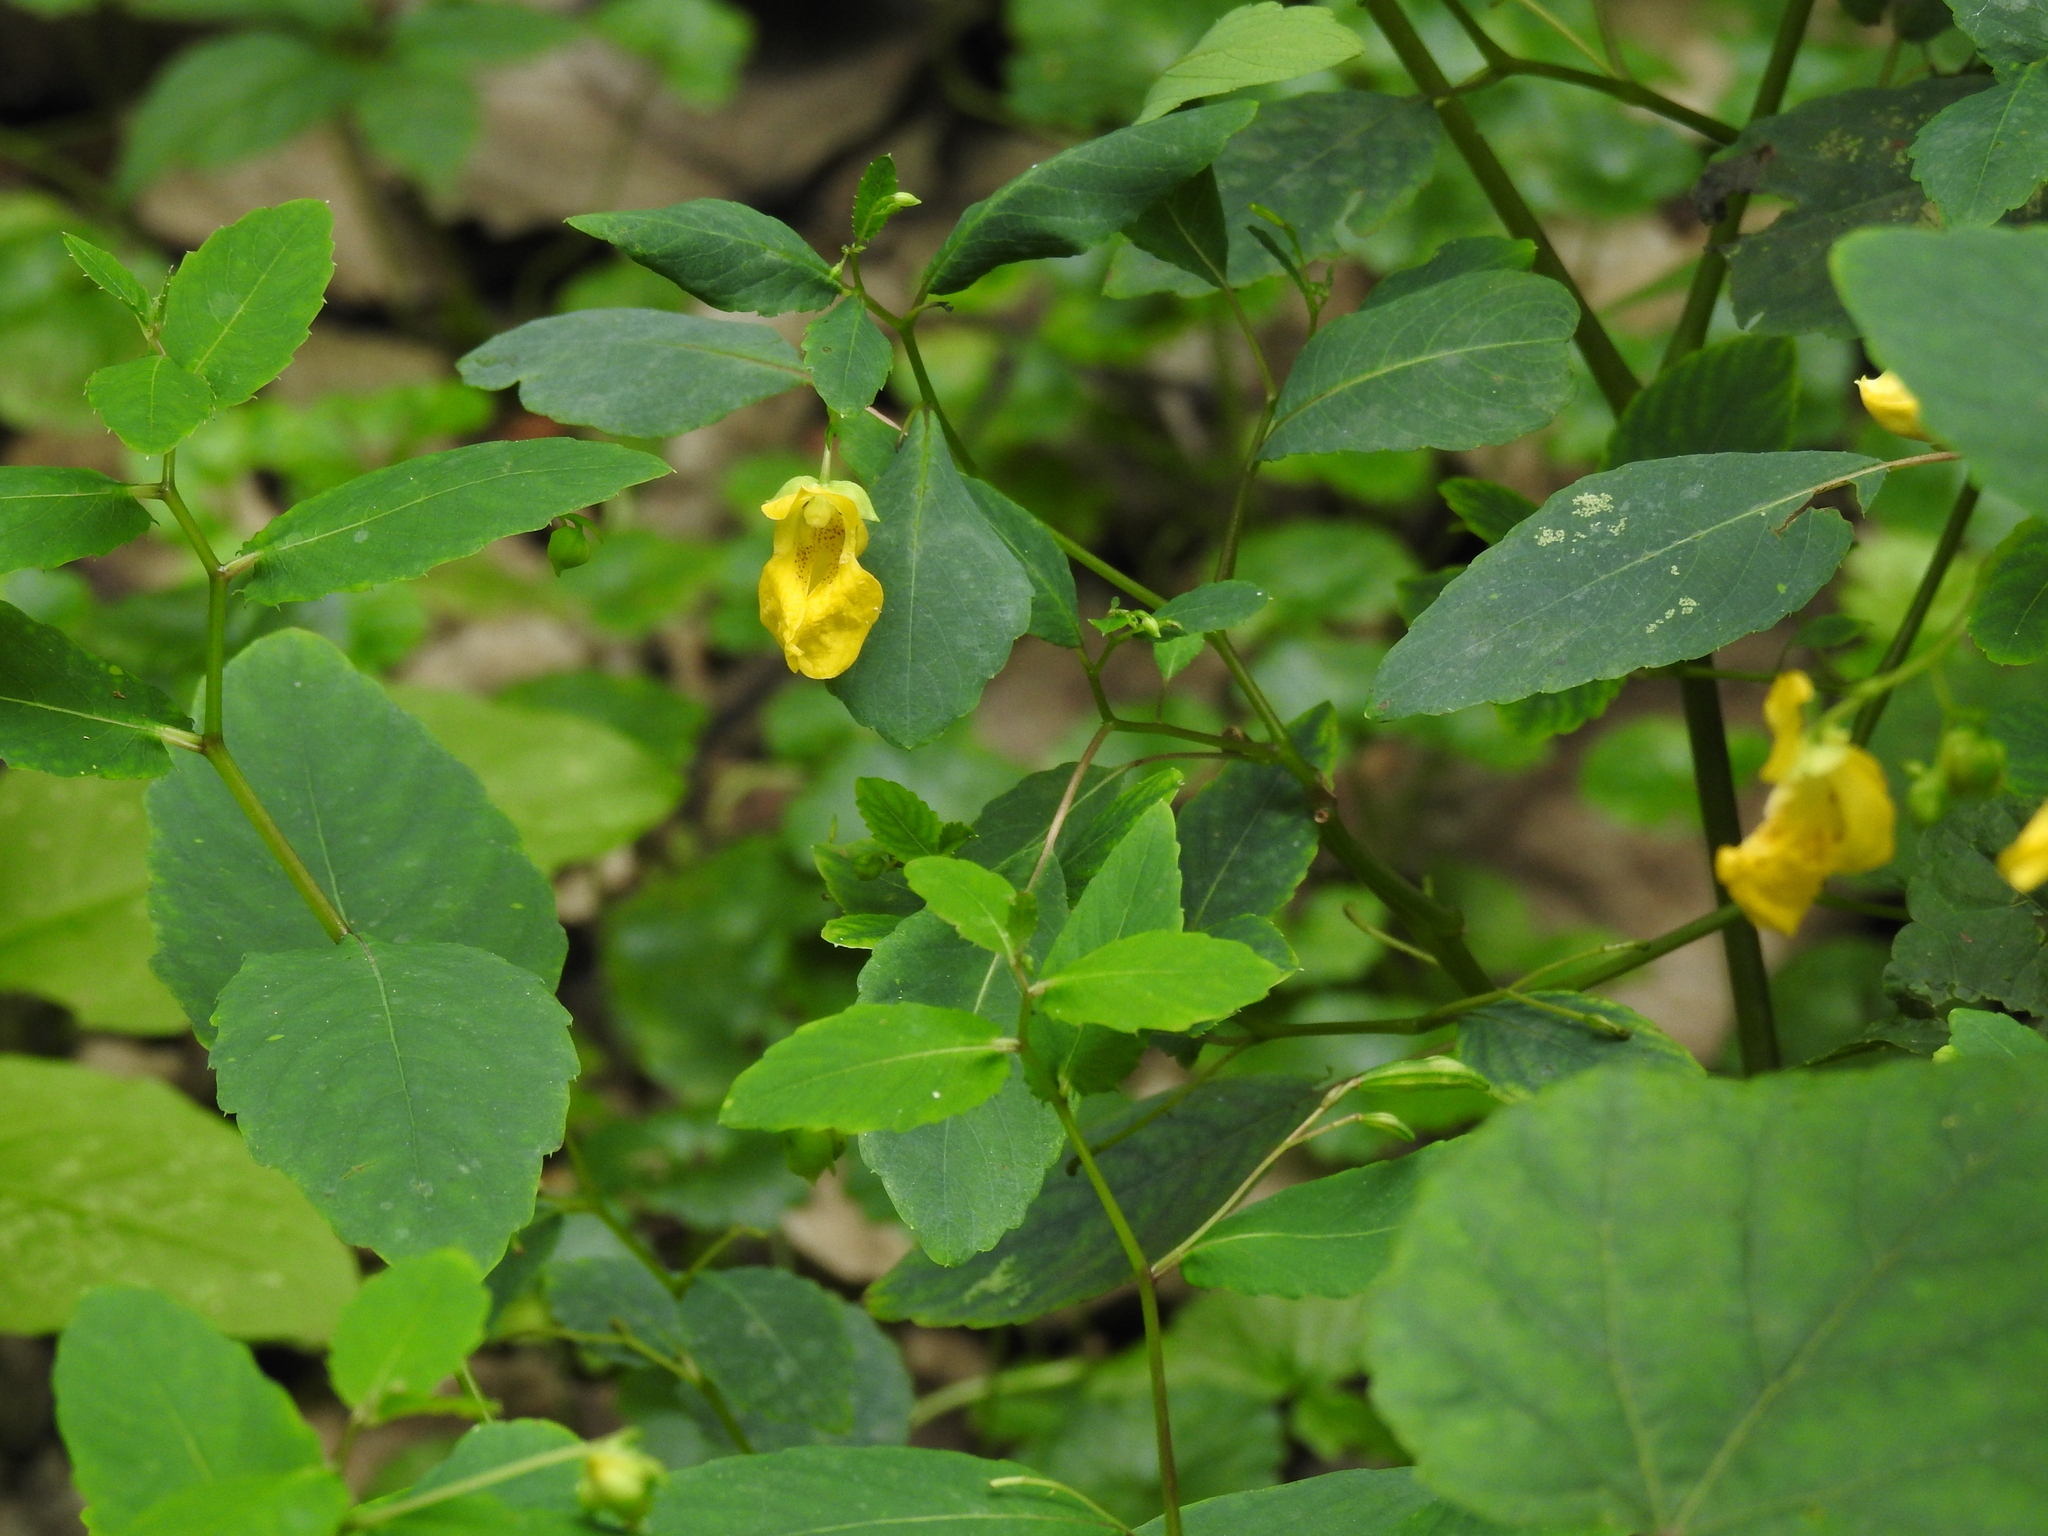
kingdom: Plantae
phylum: Tracheophyta
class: Magnoliopsida
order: Ericales
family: Balsaminaceae
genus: Impatiens
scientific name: Impatiens pallida
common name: Pale snapweed
